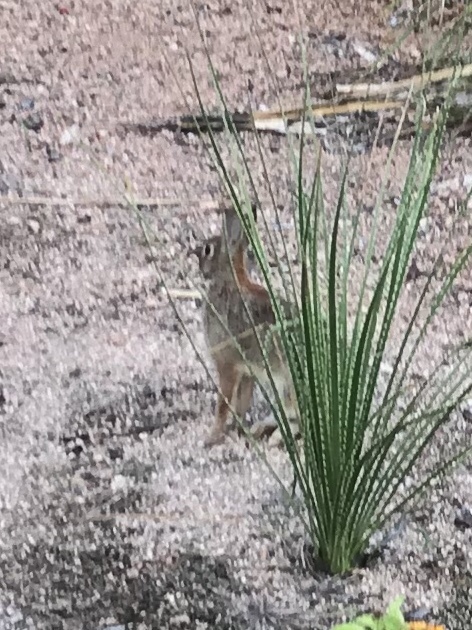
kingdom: Animalia
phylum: Chordata
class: Mammalia
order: Lagomorpha
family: Leporidae
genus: Sylvilagus
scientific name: Sylvilagus floridanus
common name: Eastern cottontail
